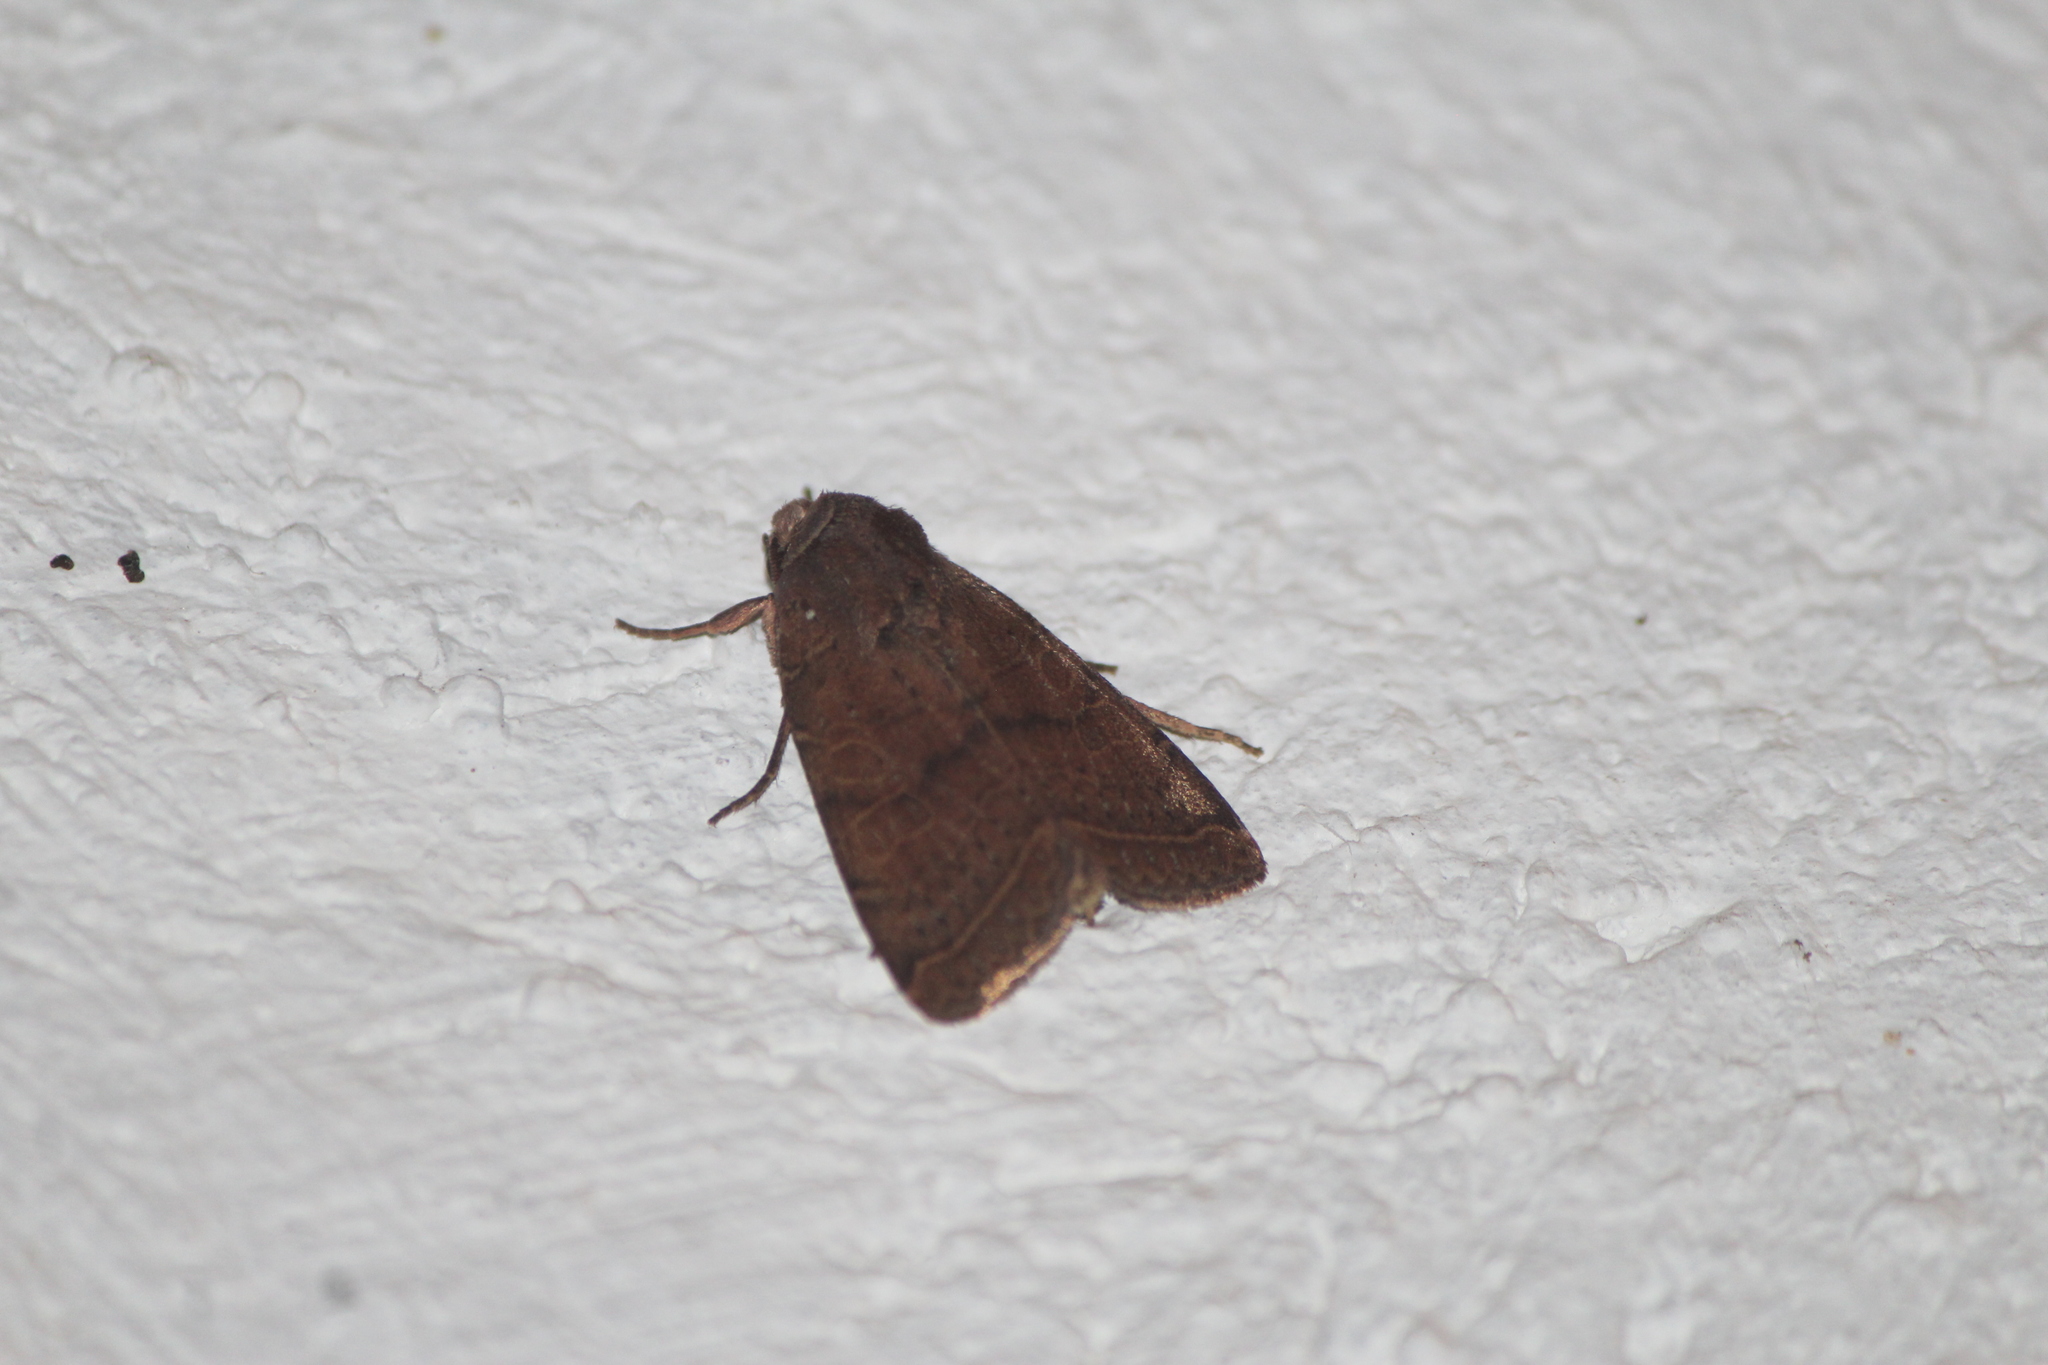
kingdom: Animalia
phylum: Arthropoda
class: Insecta
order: Lepidoptera
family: Noctuidae
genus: Orthodes
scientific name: Orthodes majuscula
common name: Rustic quaker
